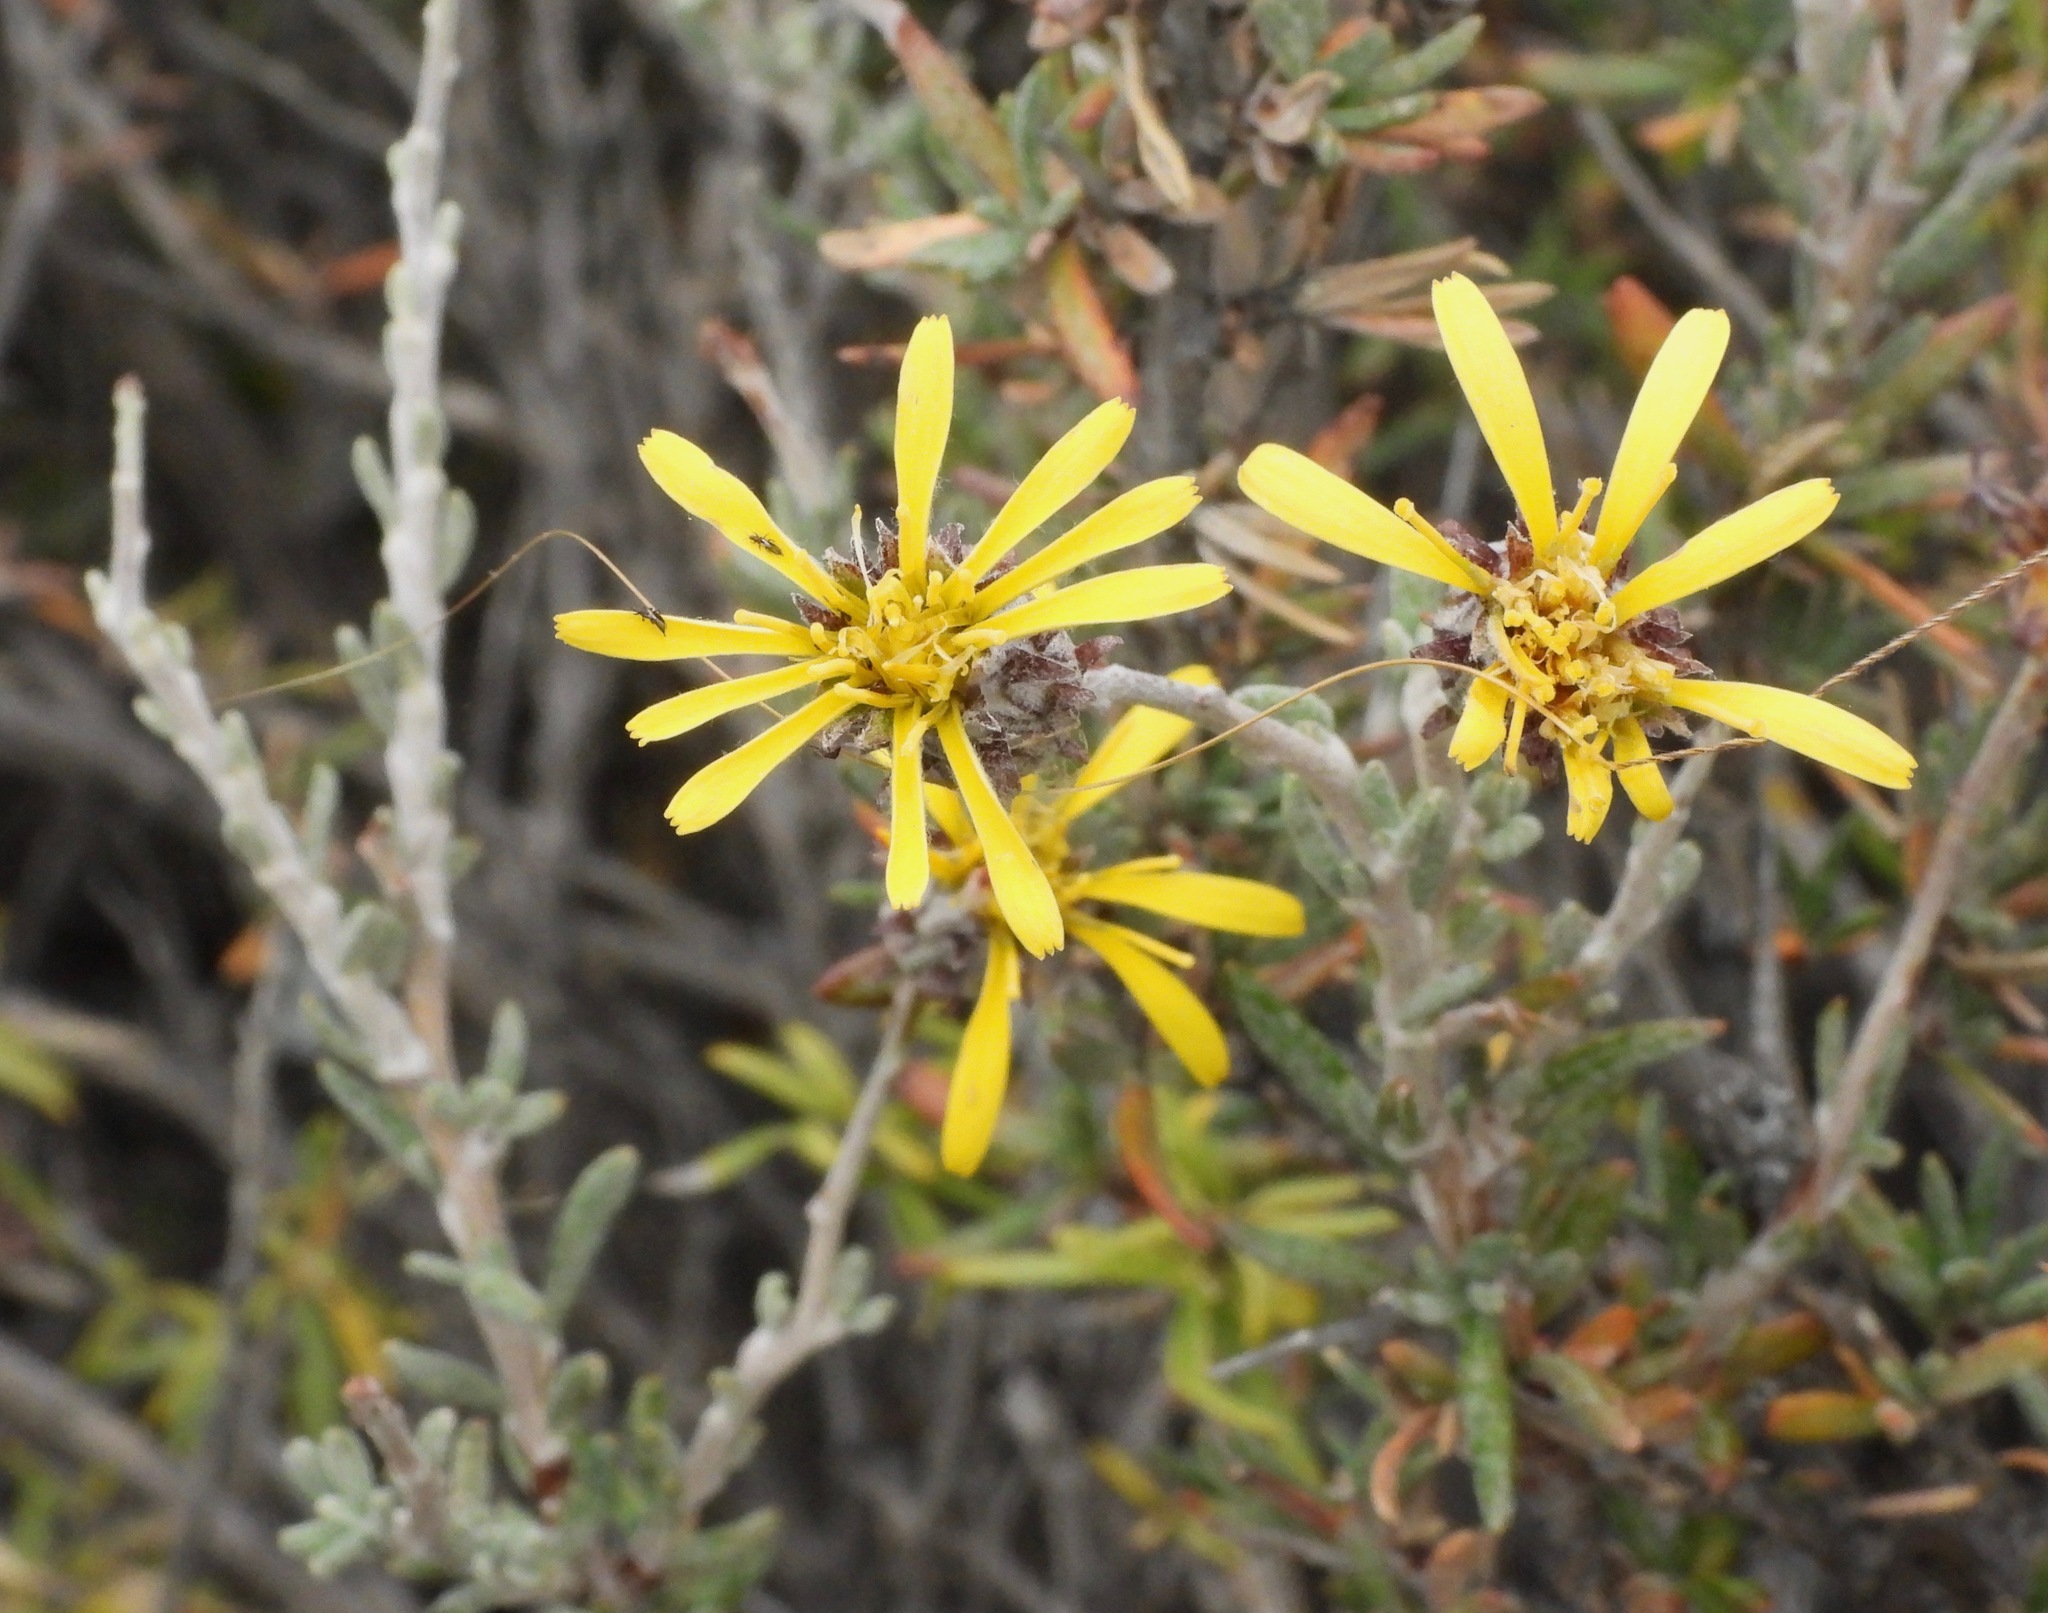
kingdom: Plantae
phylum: Tracheophyta
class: Magnoliopsida
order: Asterales
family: Asteraceae
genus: Brachyclados
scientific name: Brachyclados megalanthus
